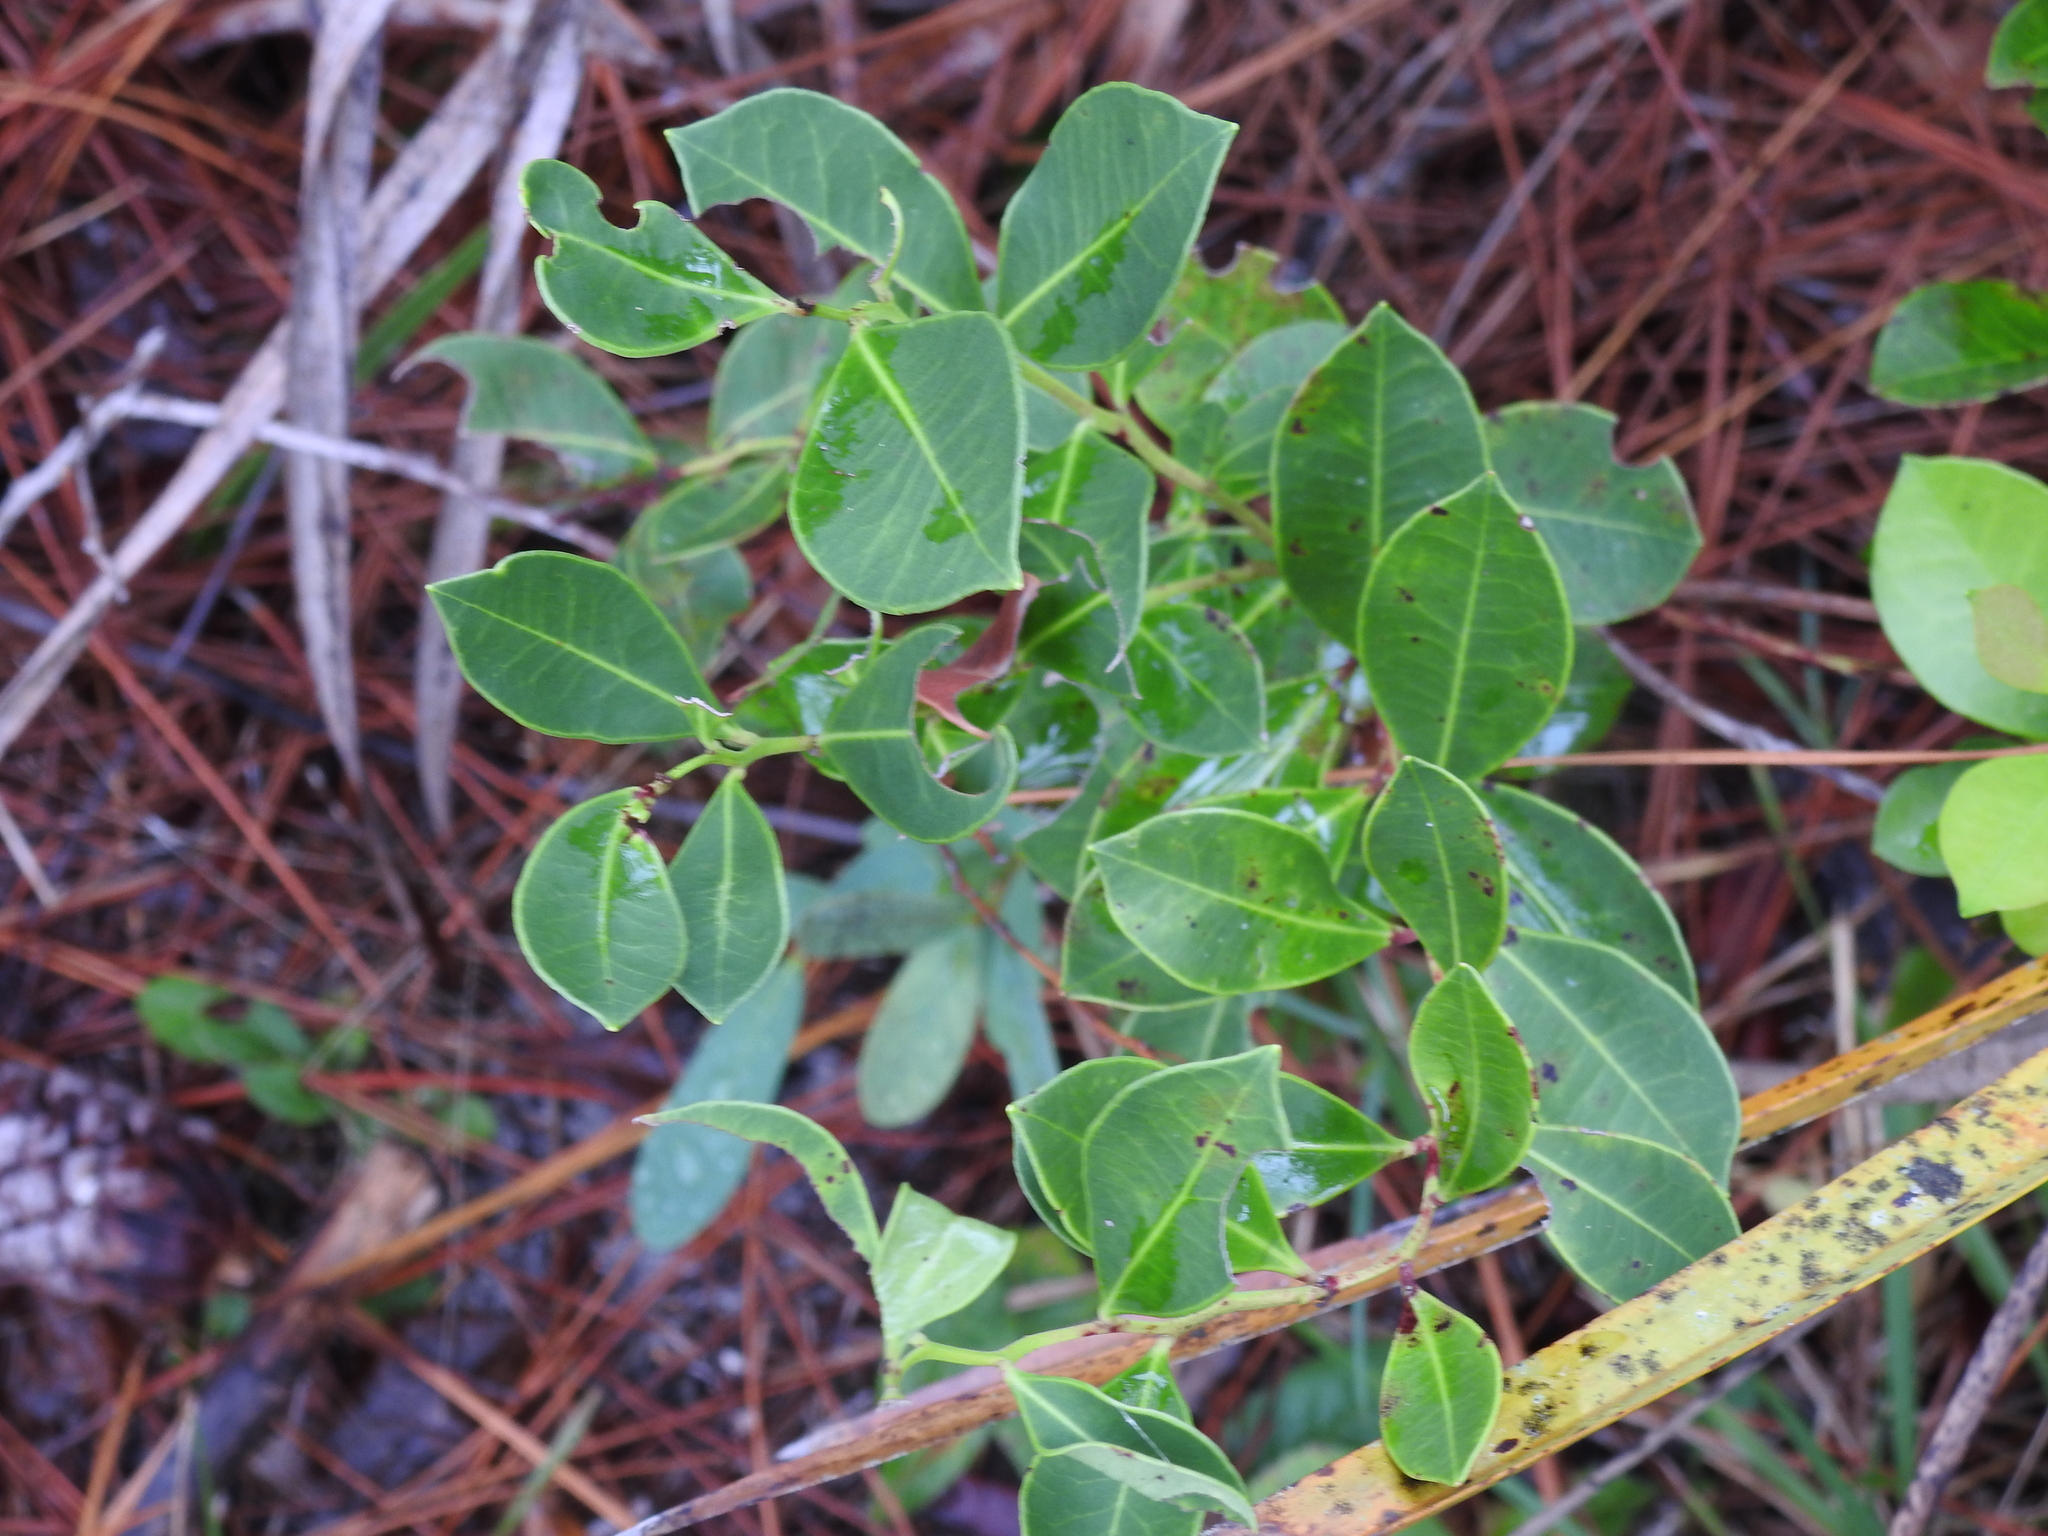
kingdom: Plantae
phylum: Tracheophyta
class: Magnoliopsida
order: Ericales
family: Ericaceae
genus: Lyonia
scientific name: Lyonia lucida
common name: Fetterbush
